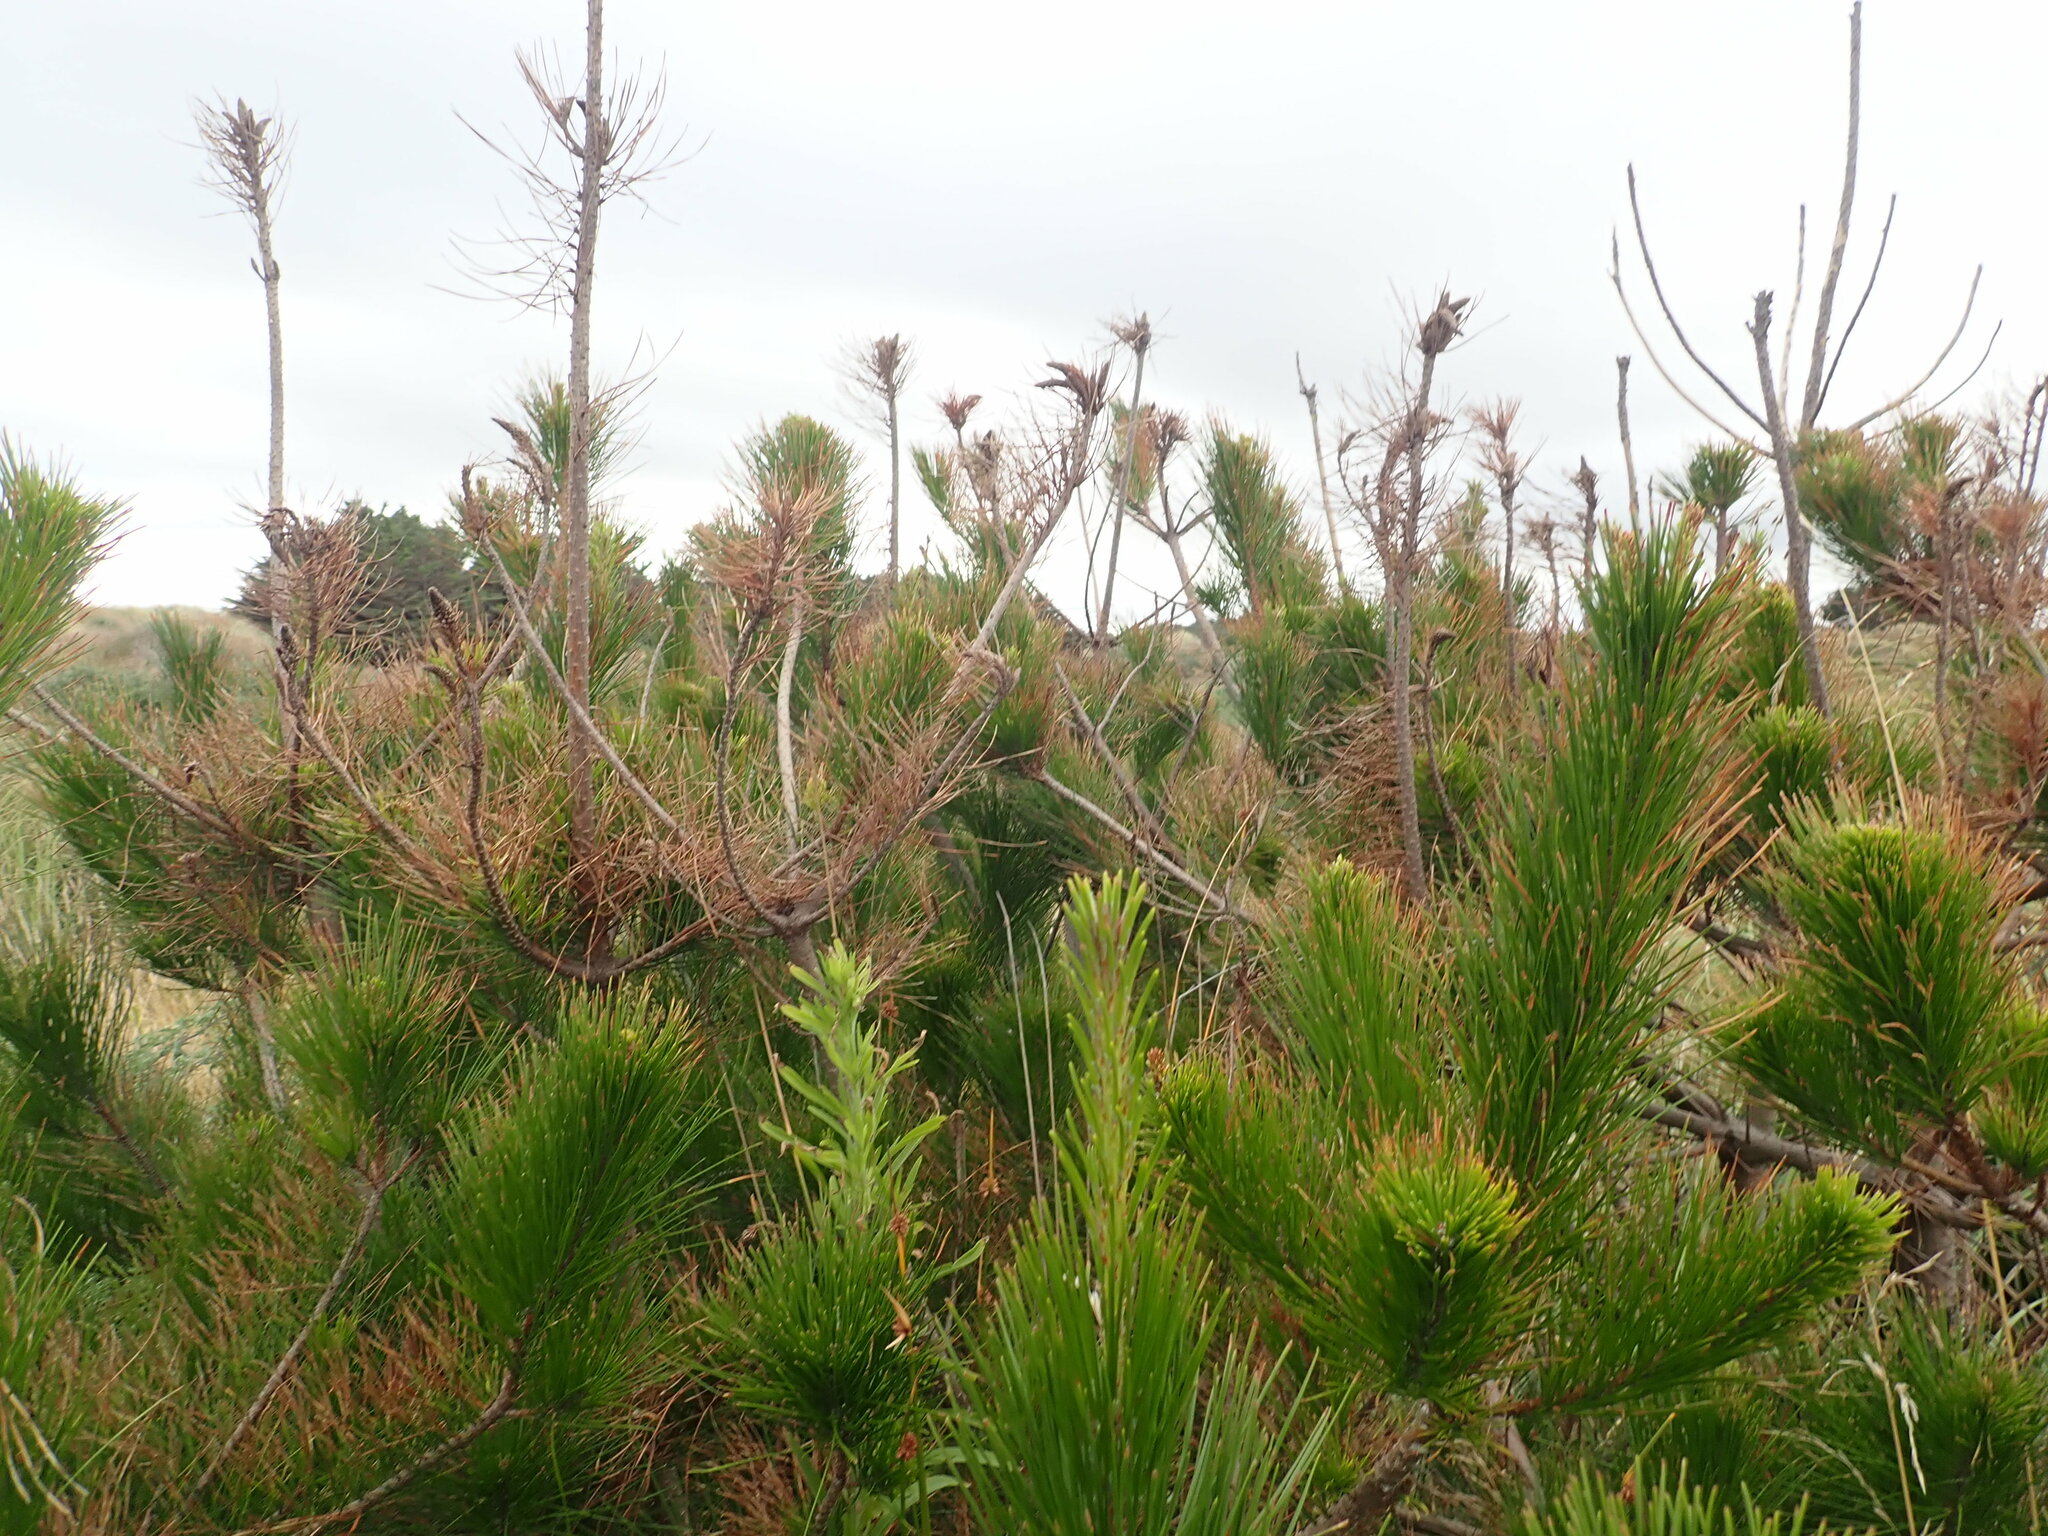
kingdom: Plantae
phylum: Tracheophyta
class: Pinopsida
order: Pinales
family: Pinaceae
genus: Pinus
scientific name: Pinus radiata
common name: Monterey pine
